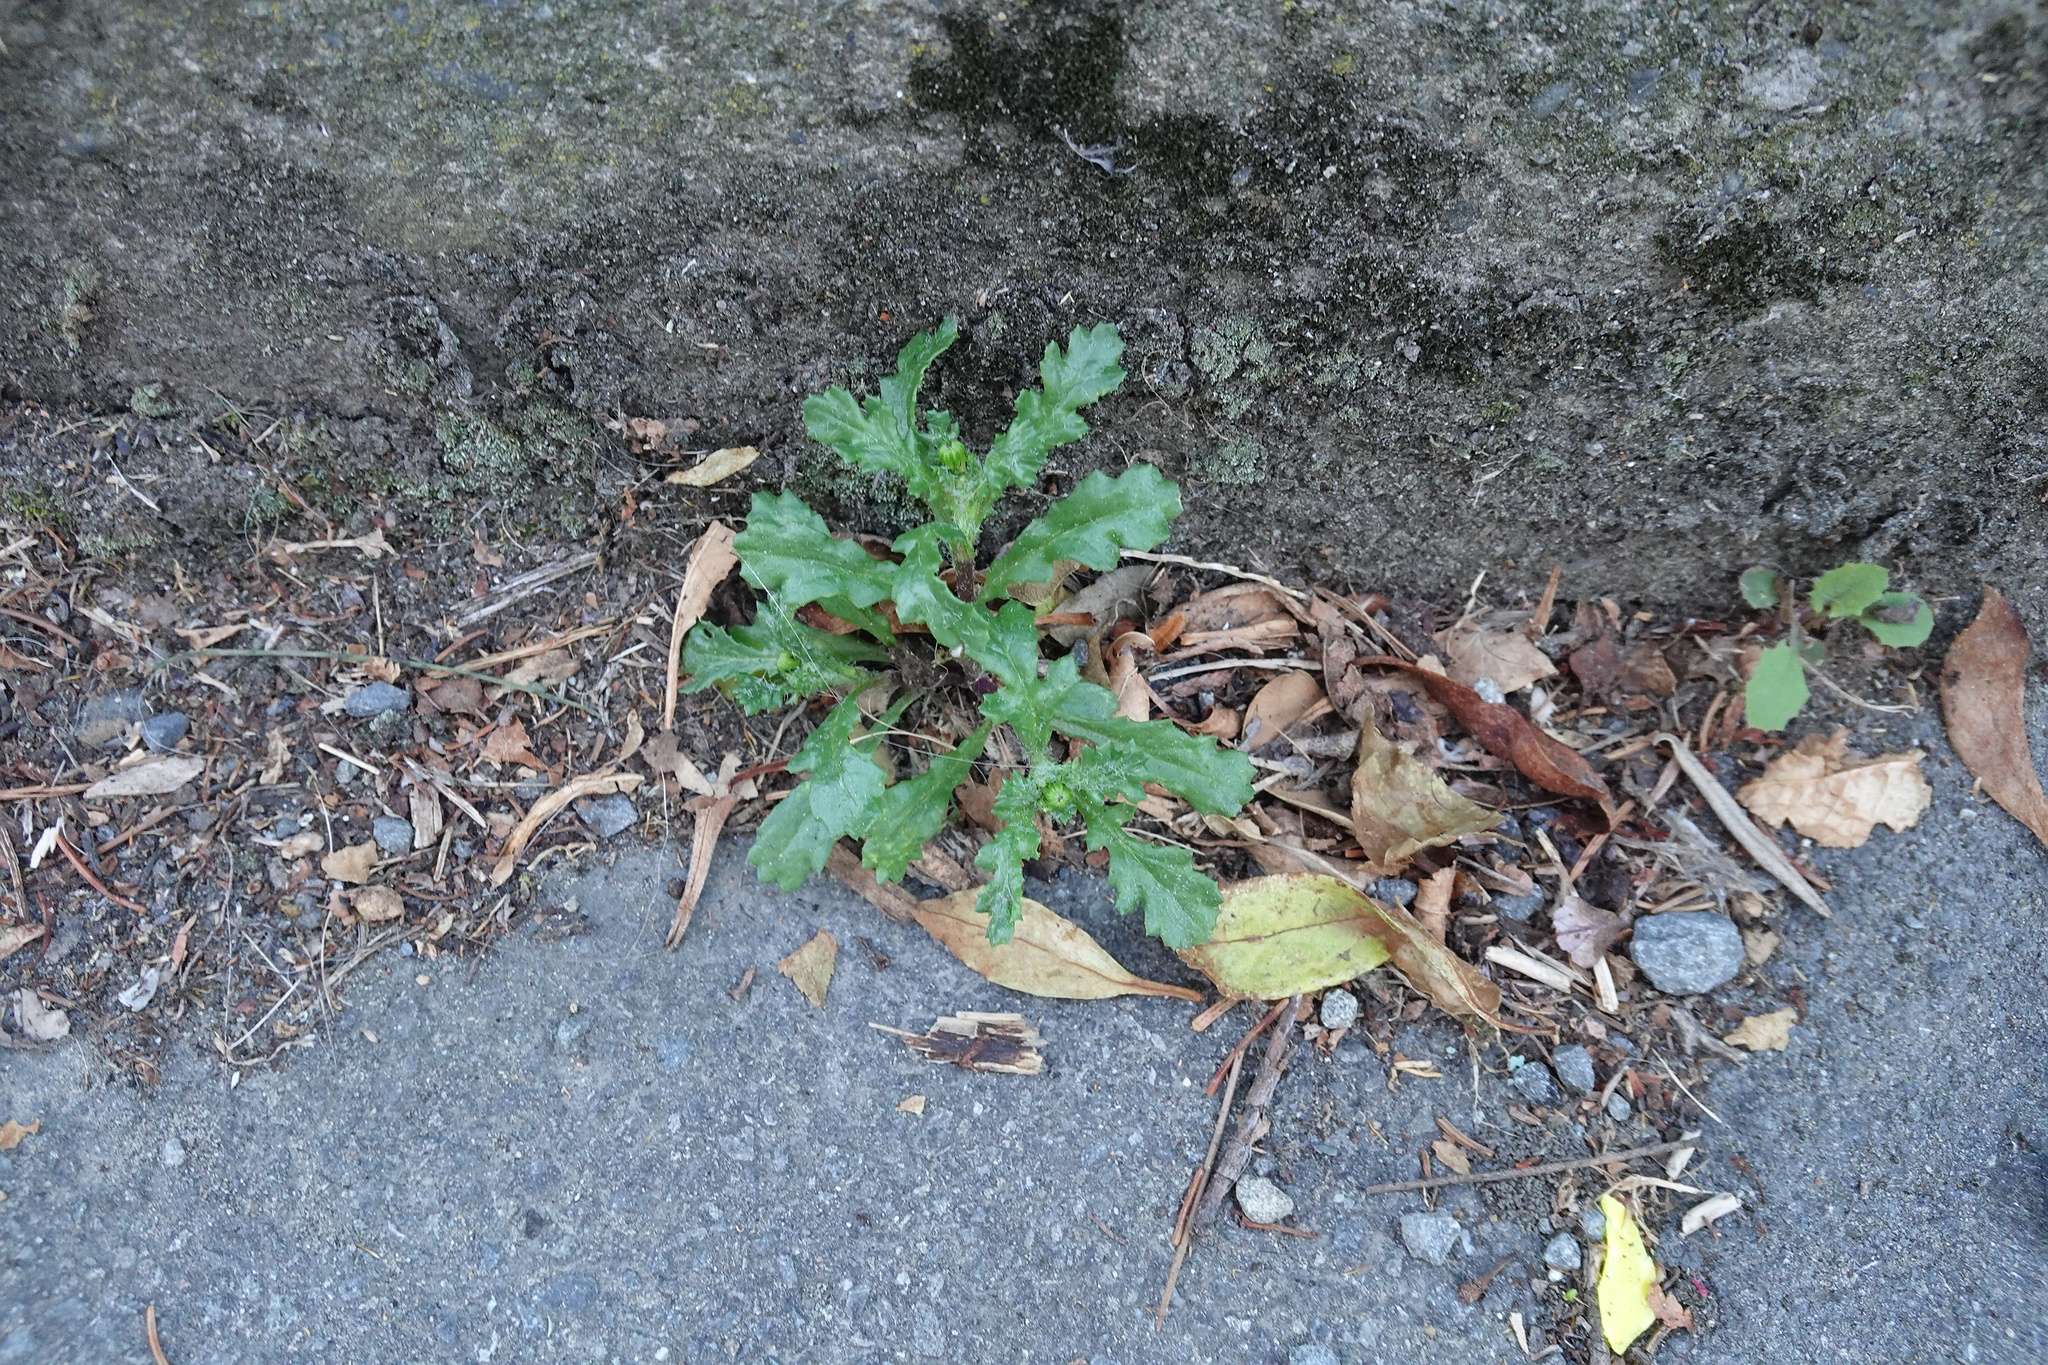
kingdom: Plantae
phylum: Tracheophyta
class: Magnoliopsida
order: Asterales
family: Asteraceae
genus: Senecio
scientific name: Senecio vulgaris
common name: Old-man-in-the-spring
